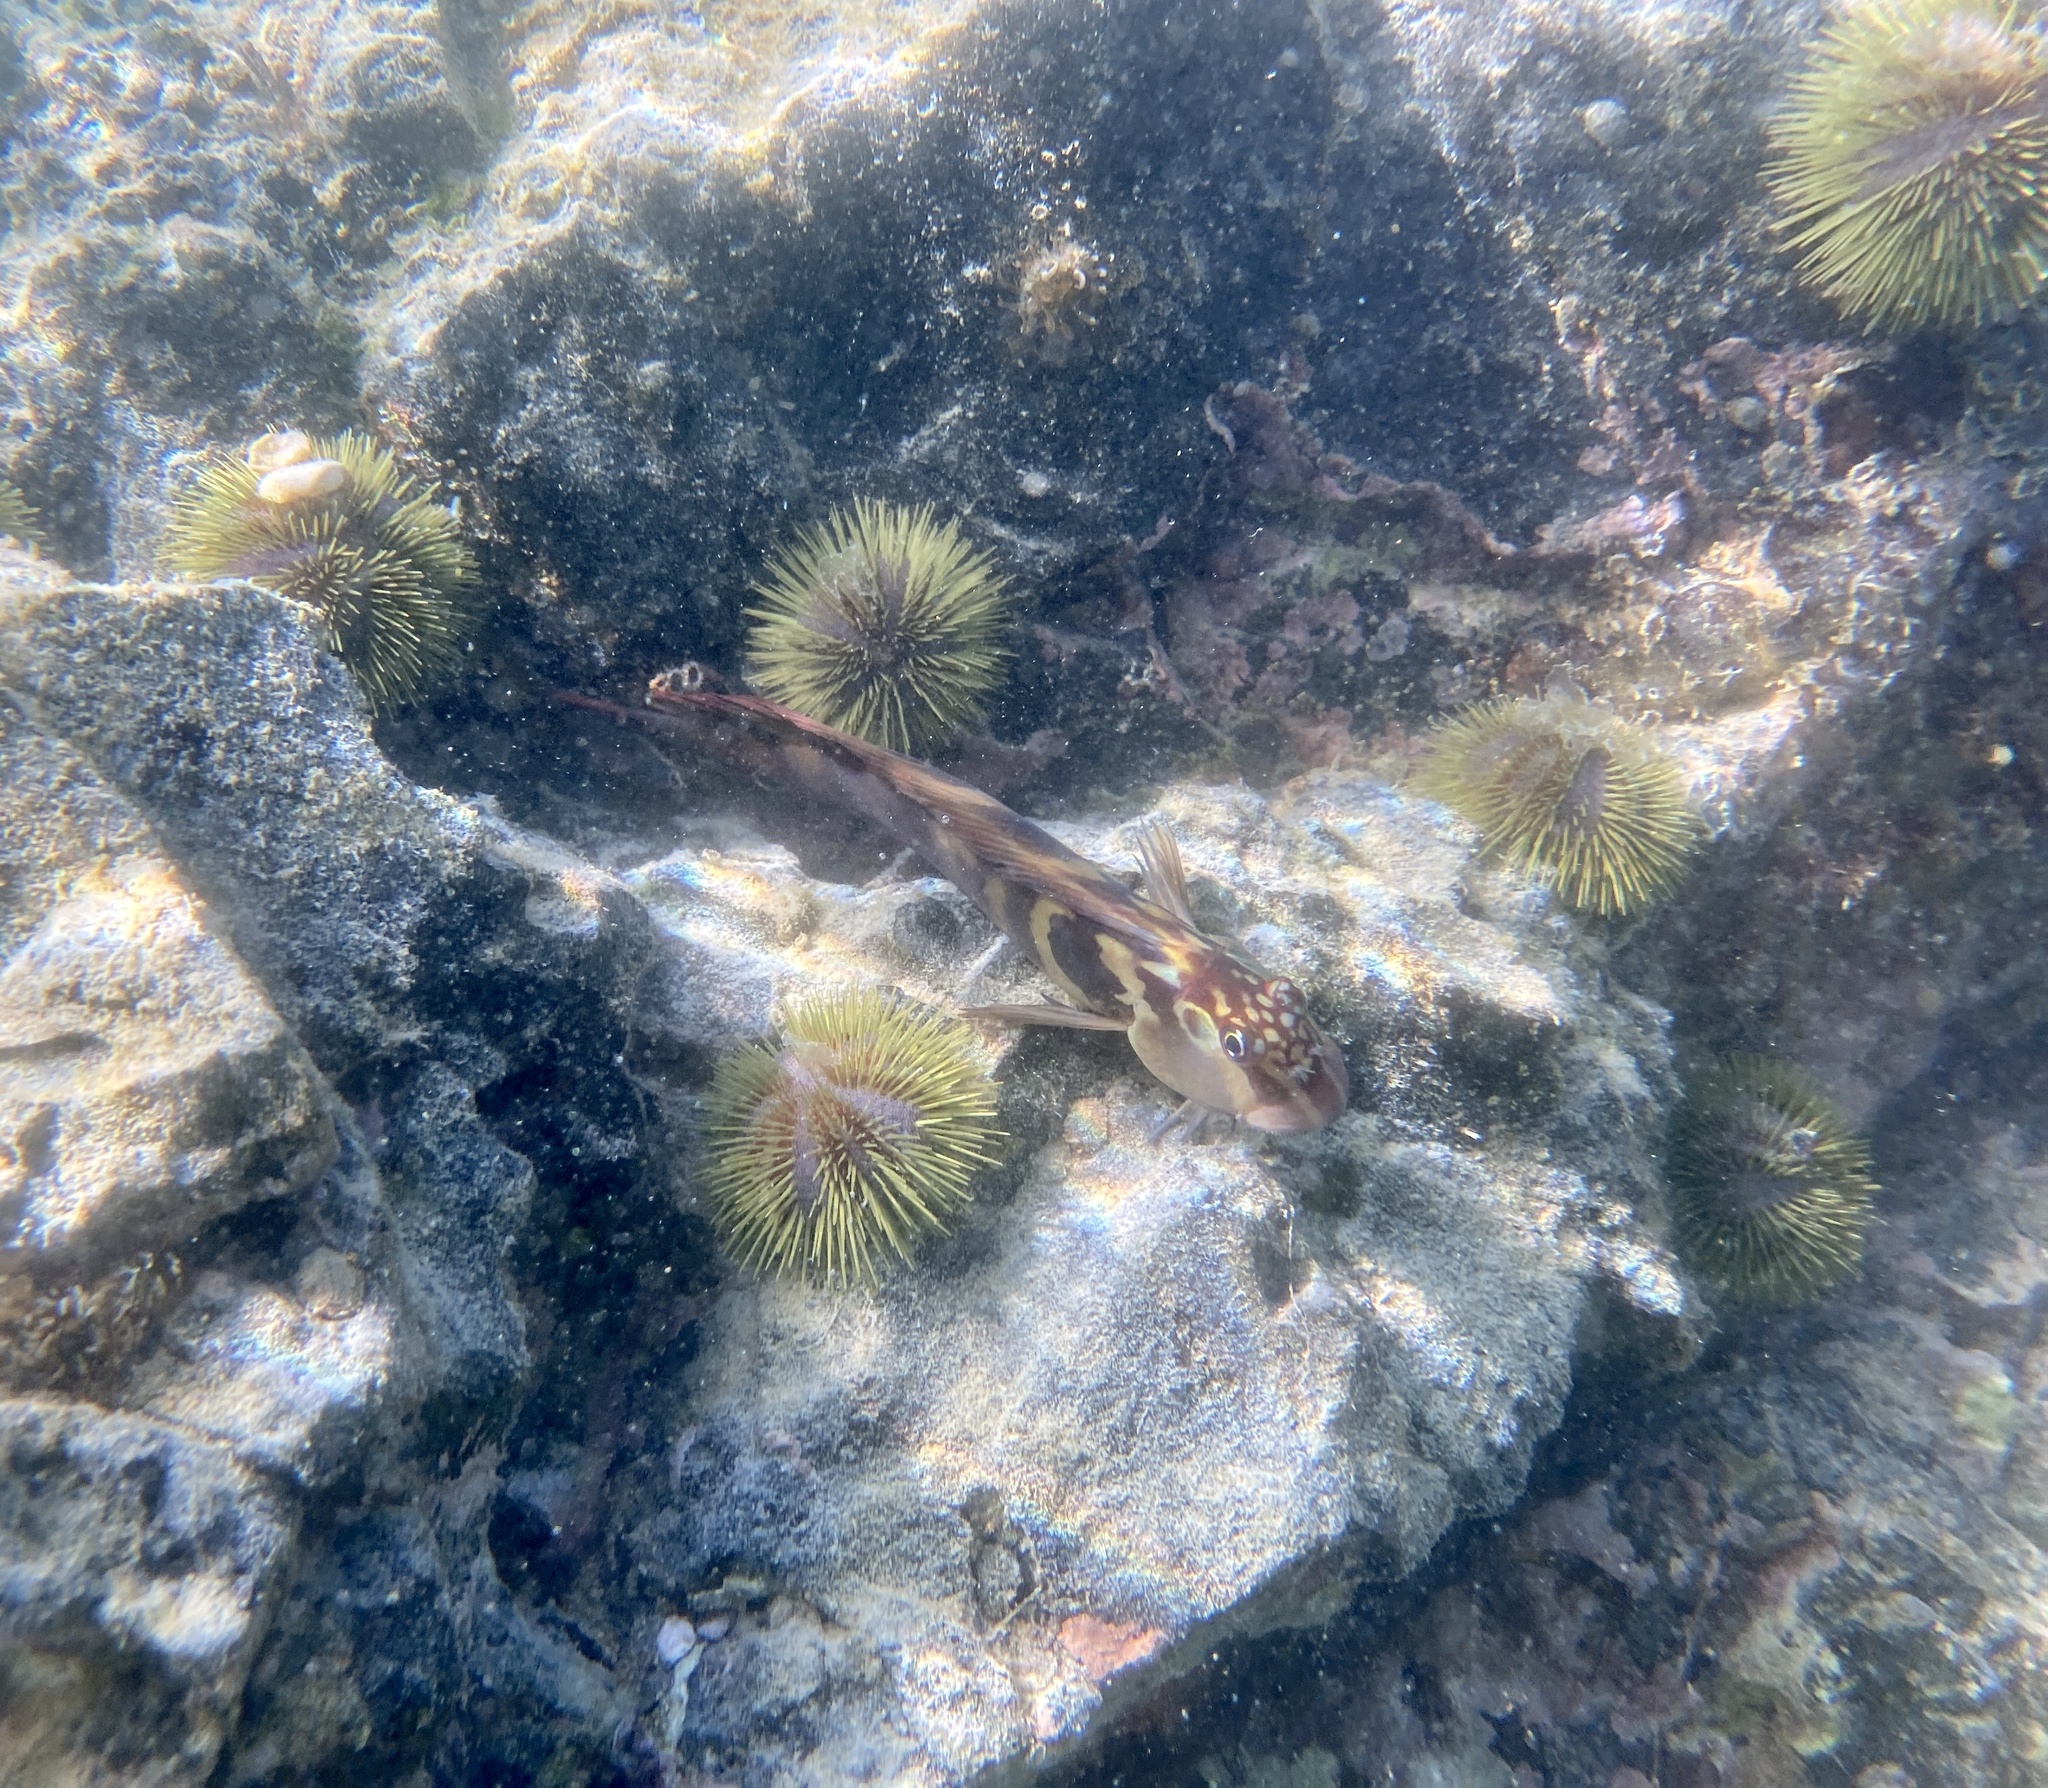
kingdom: Animalia
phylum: Chordata
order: Perciformes
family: Blenniidae
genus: Ophioblennius
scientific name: Ophioblennius steindachneri
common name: Panamic fanged blenny
